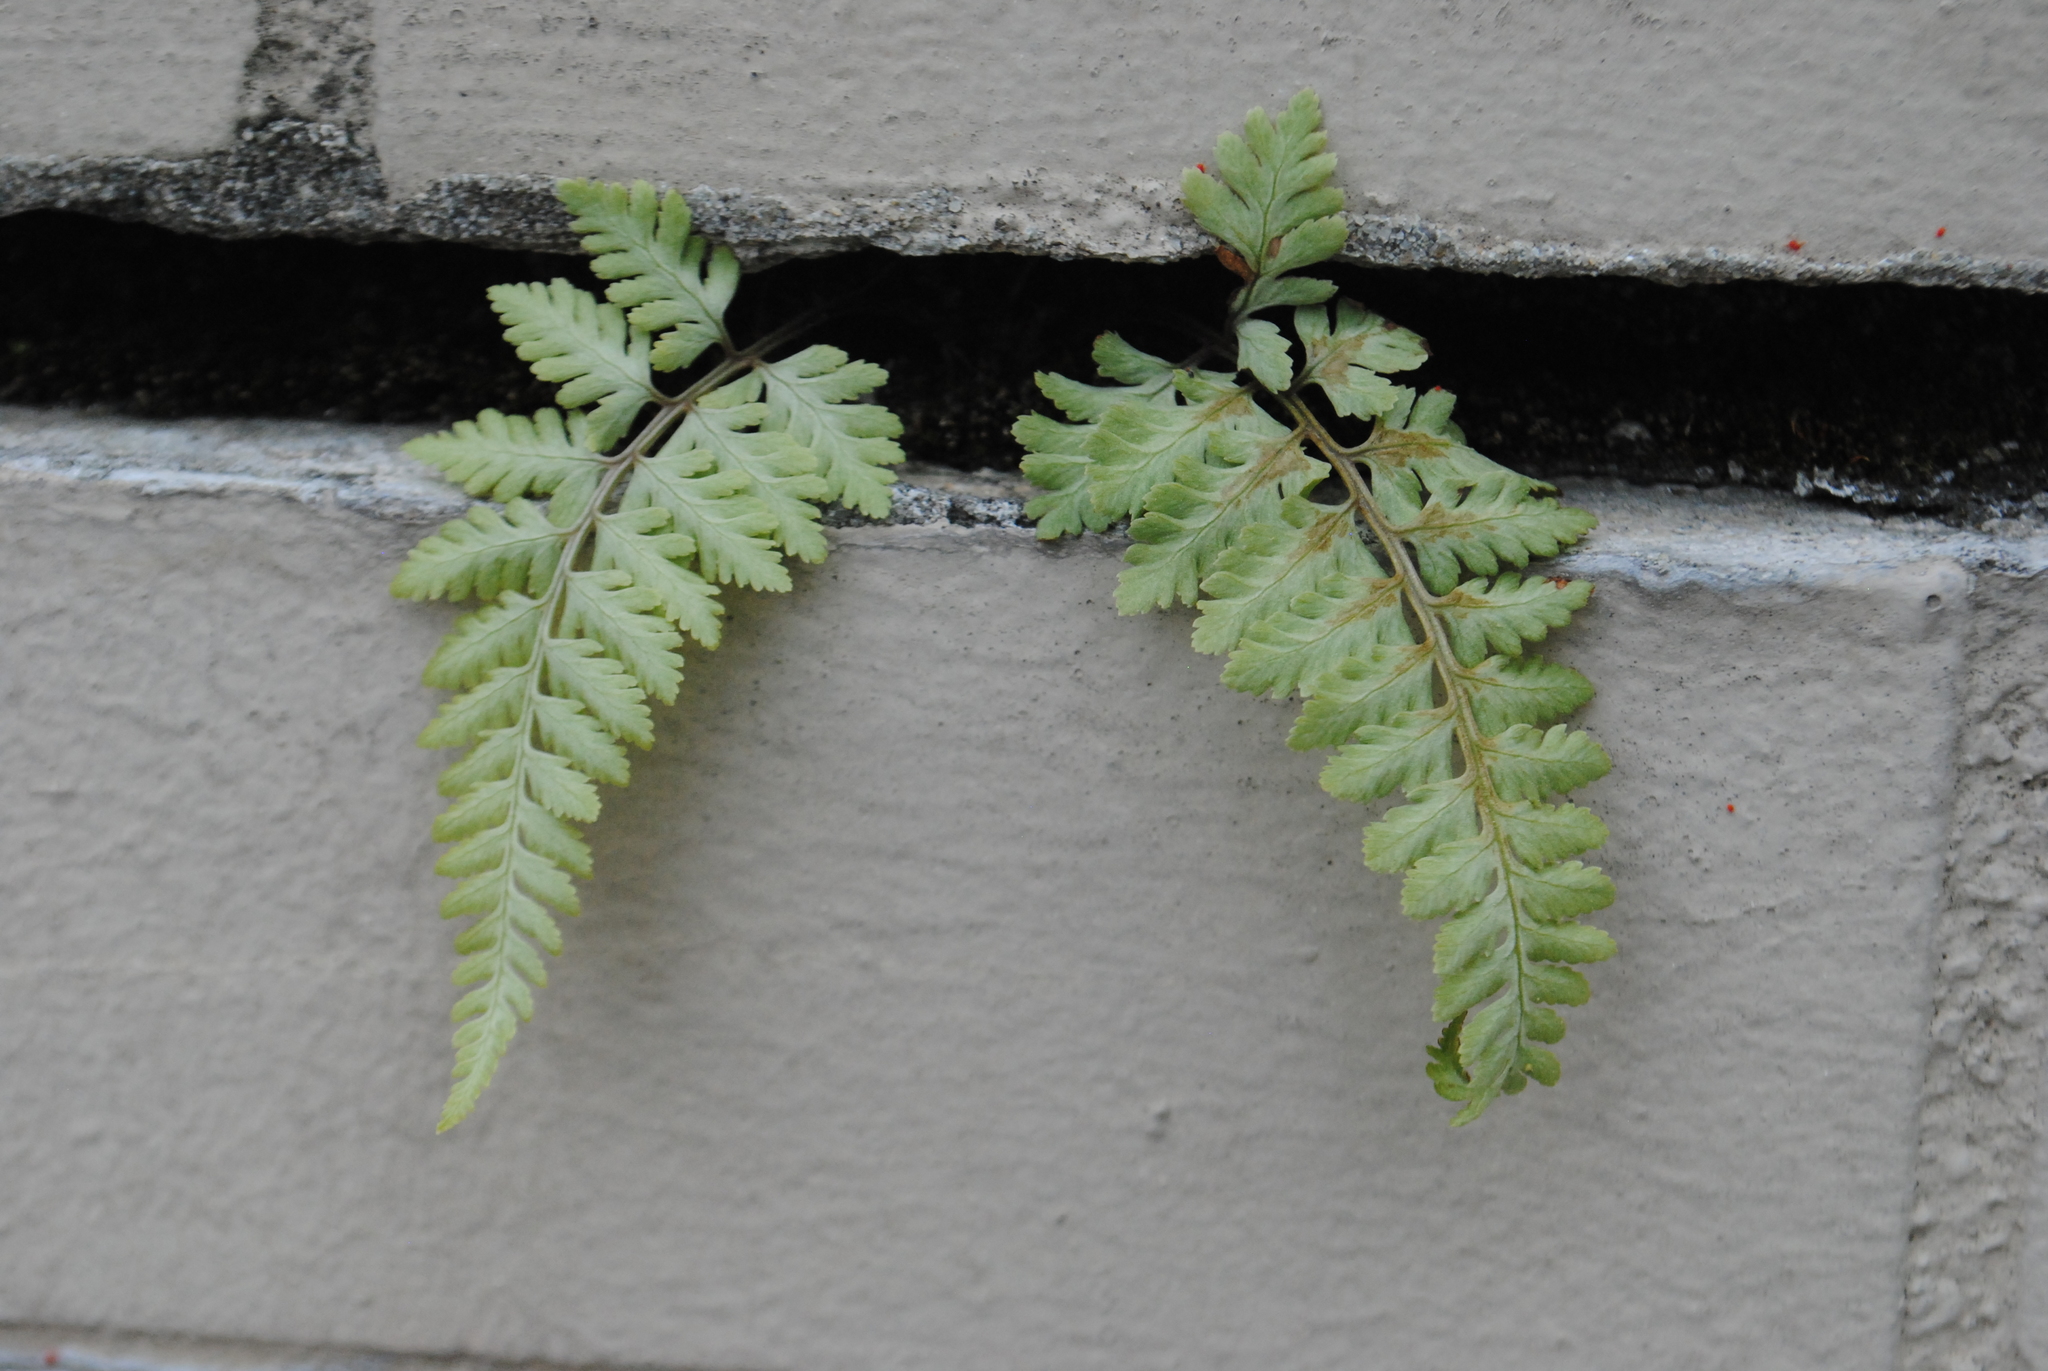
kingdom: Plantae
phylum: Tracheophyta
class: Polypodiopsida
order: Polypodiales
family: Athyriaceae
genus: Anisocampium
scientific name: Anisocampium niponicum
